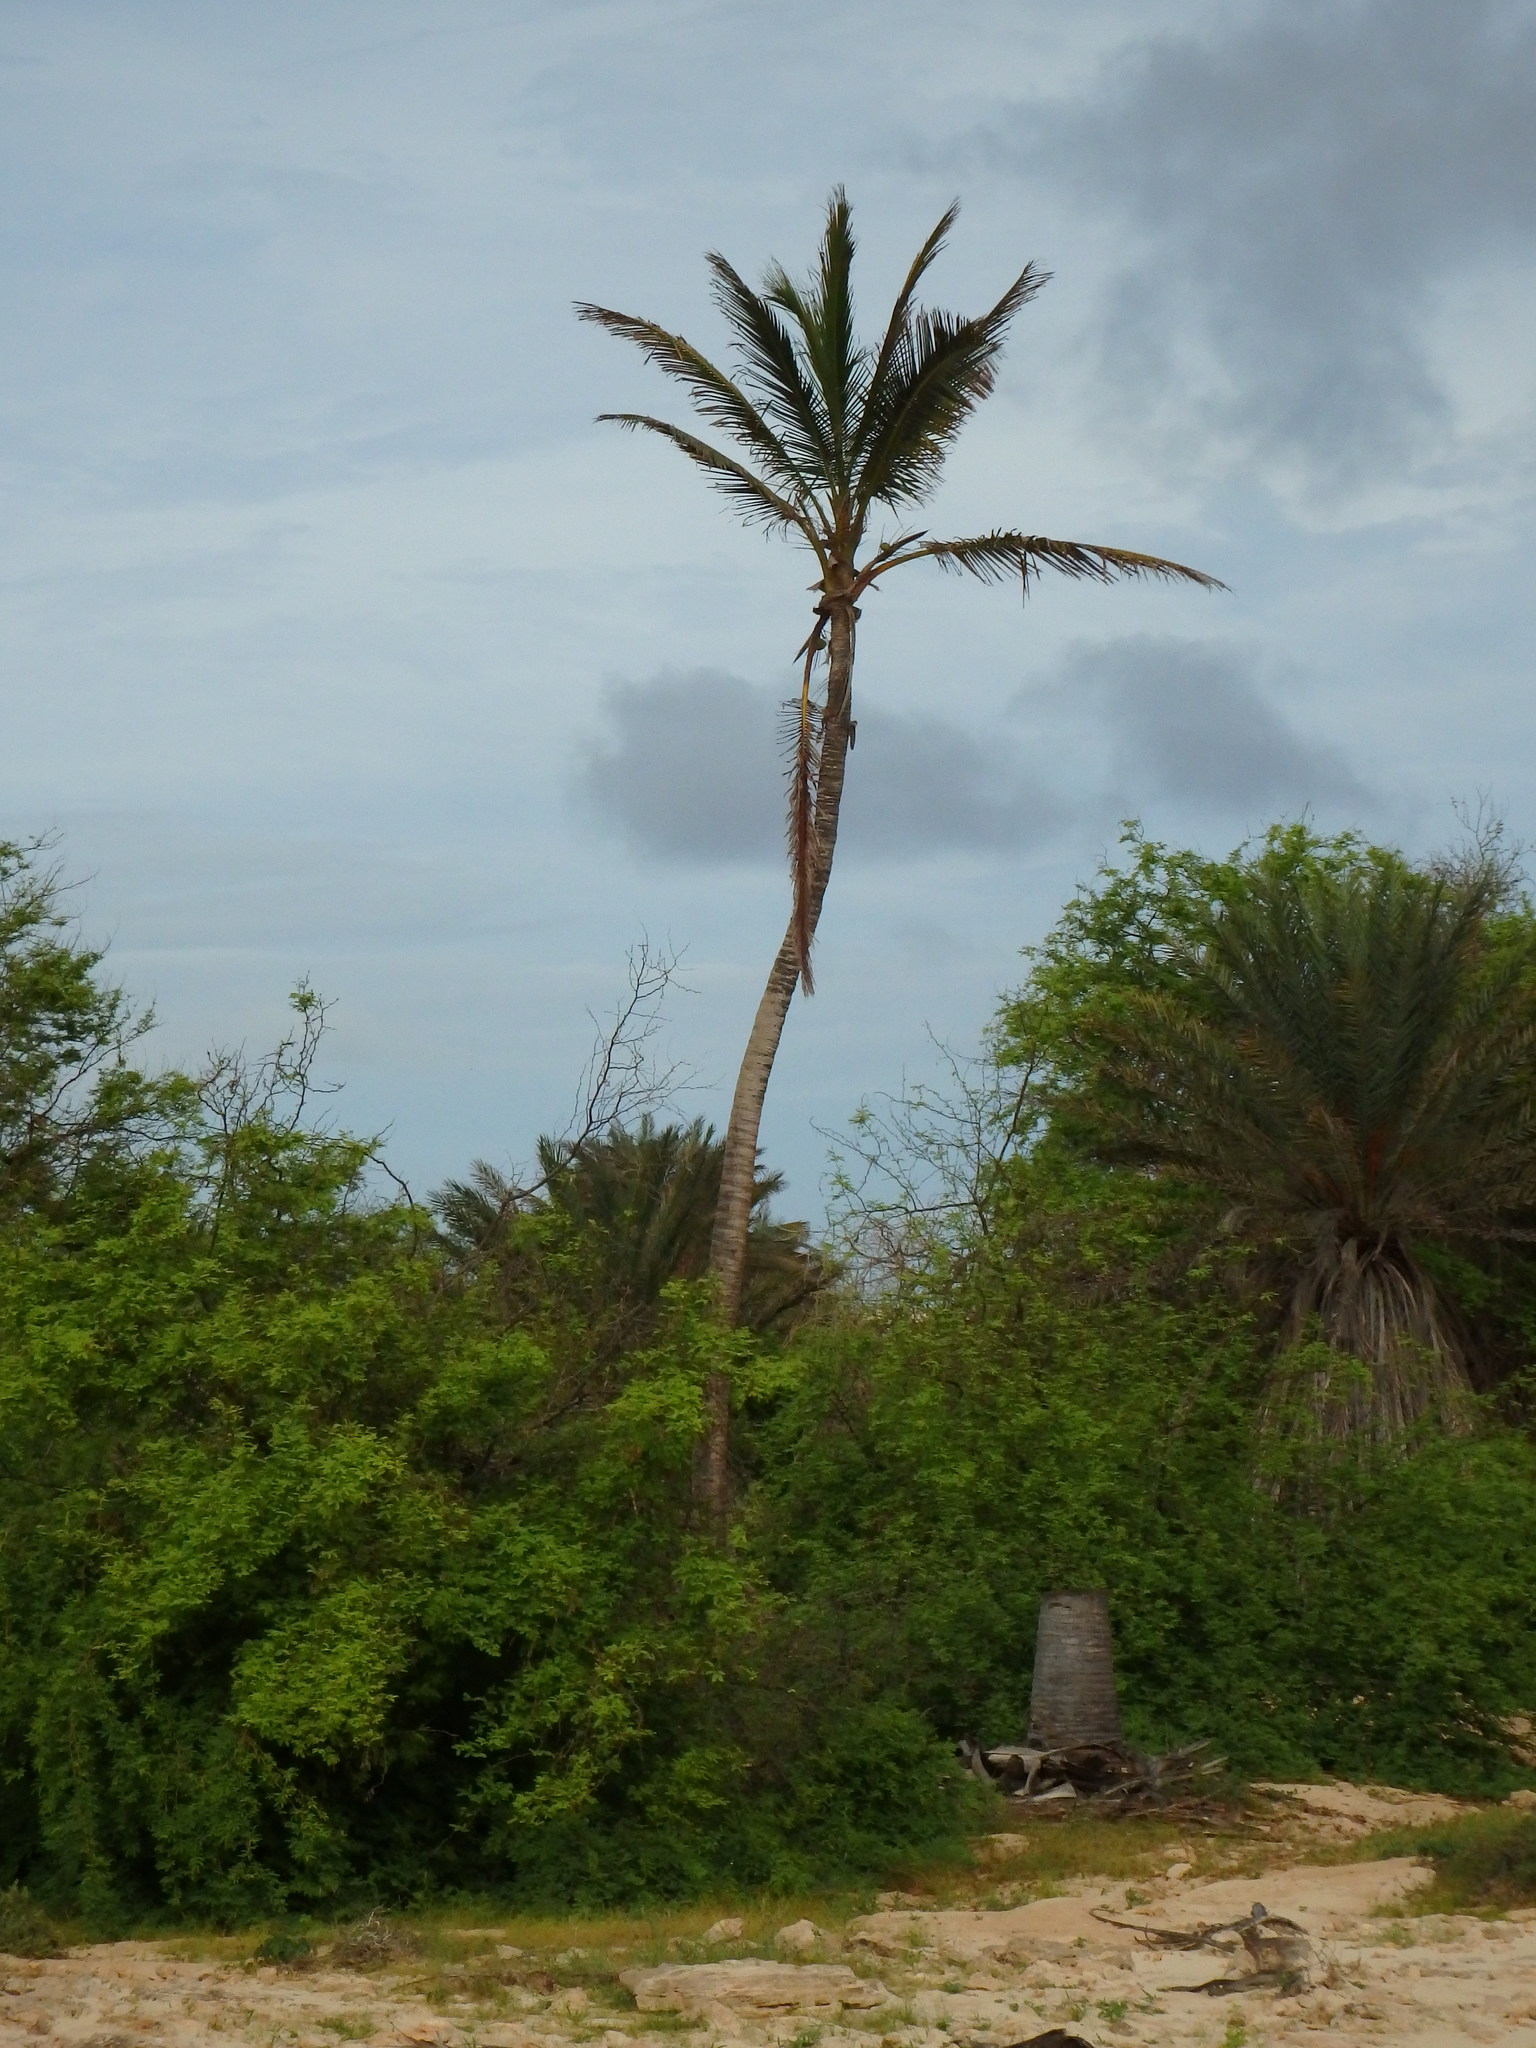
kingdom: Plantae
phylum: Tracheophyta
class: Liliopsida
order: Arecales
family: Arecaceae
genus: Cocos
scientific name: Cocos nucifera
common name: Coconut palm
